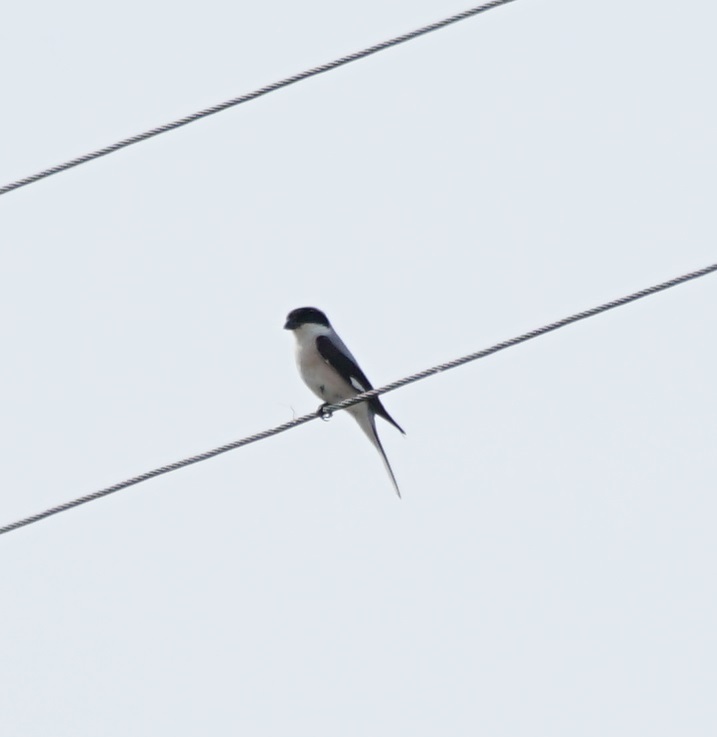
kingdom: Animalia
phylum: Chordata
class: Aves
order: Passeriformes
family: Laniidae
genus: Lanius
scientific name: Lanius minor
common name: Lesser grey shrike
